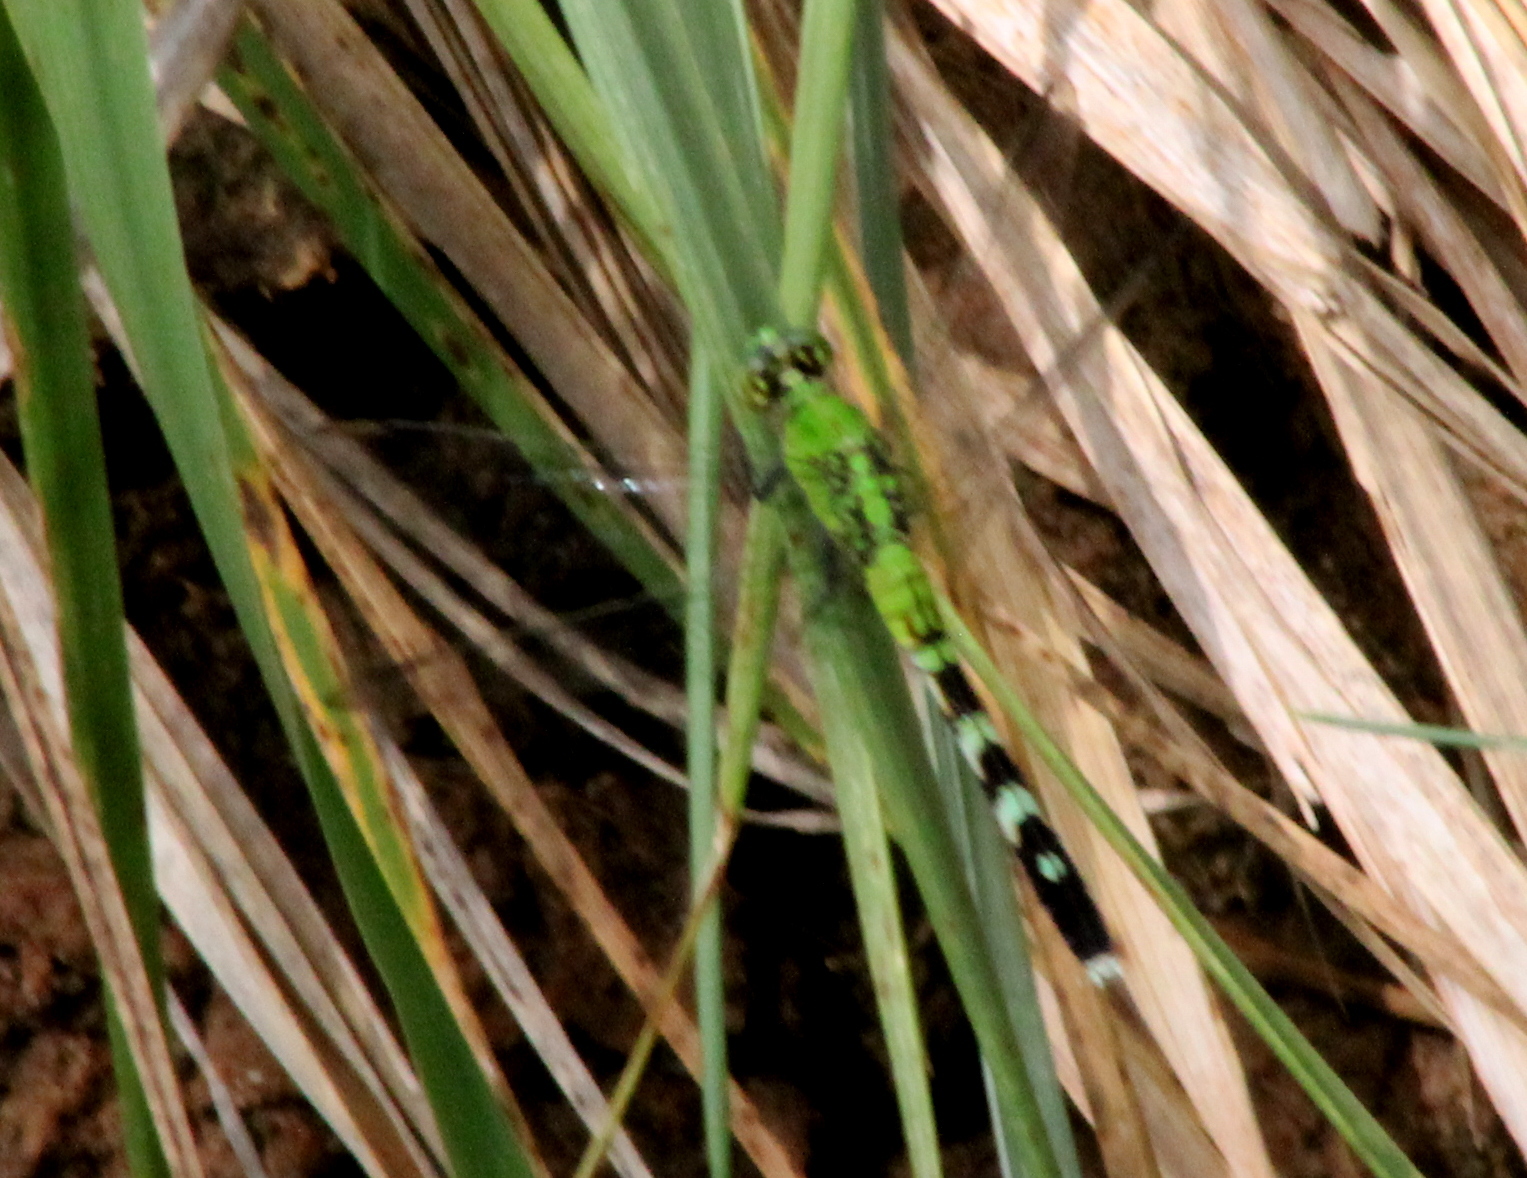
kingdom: Animalia
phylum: Arthropoda
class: Insecta
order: Odonata
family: Libellulidae
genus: Erythemis
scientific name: Erythemis simplicicollis
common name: Eastern pondhawk
